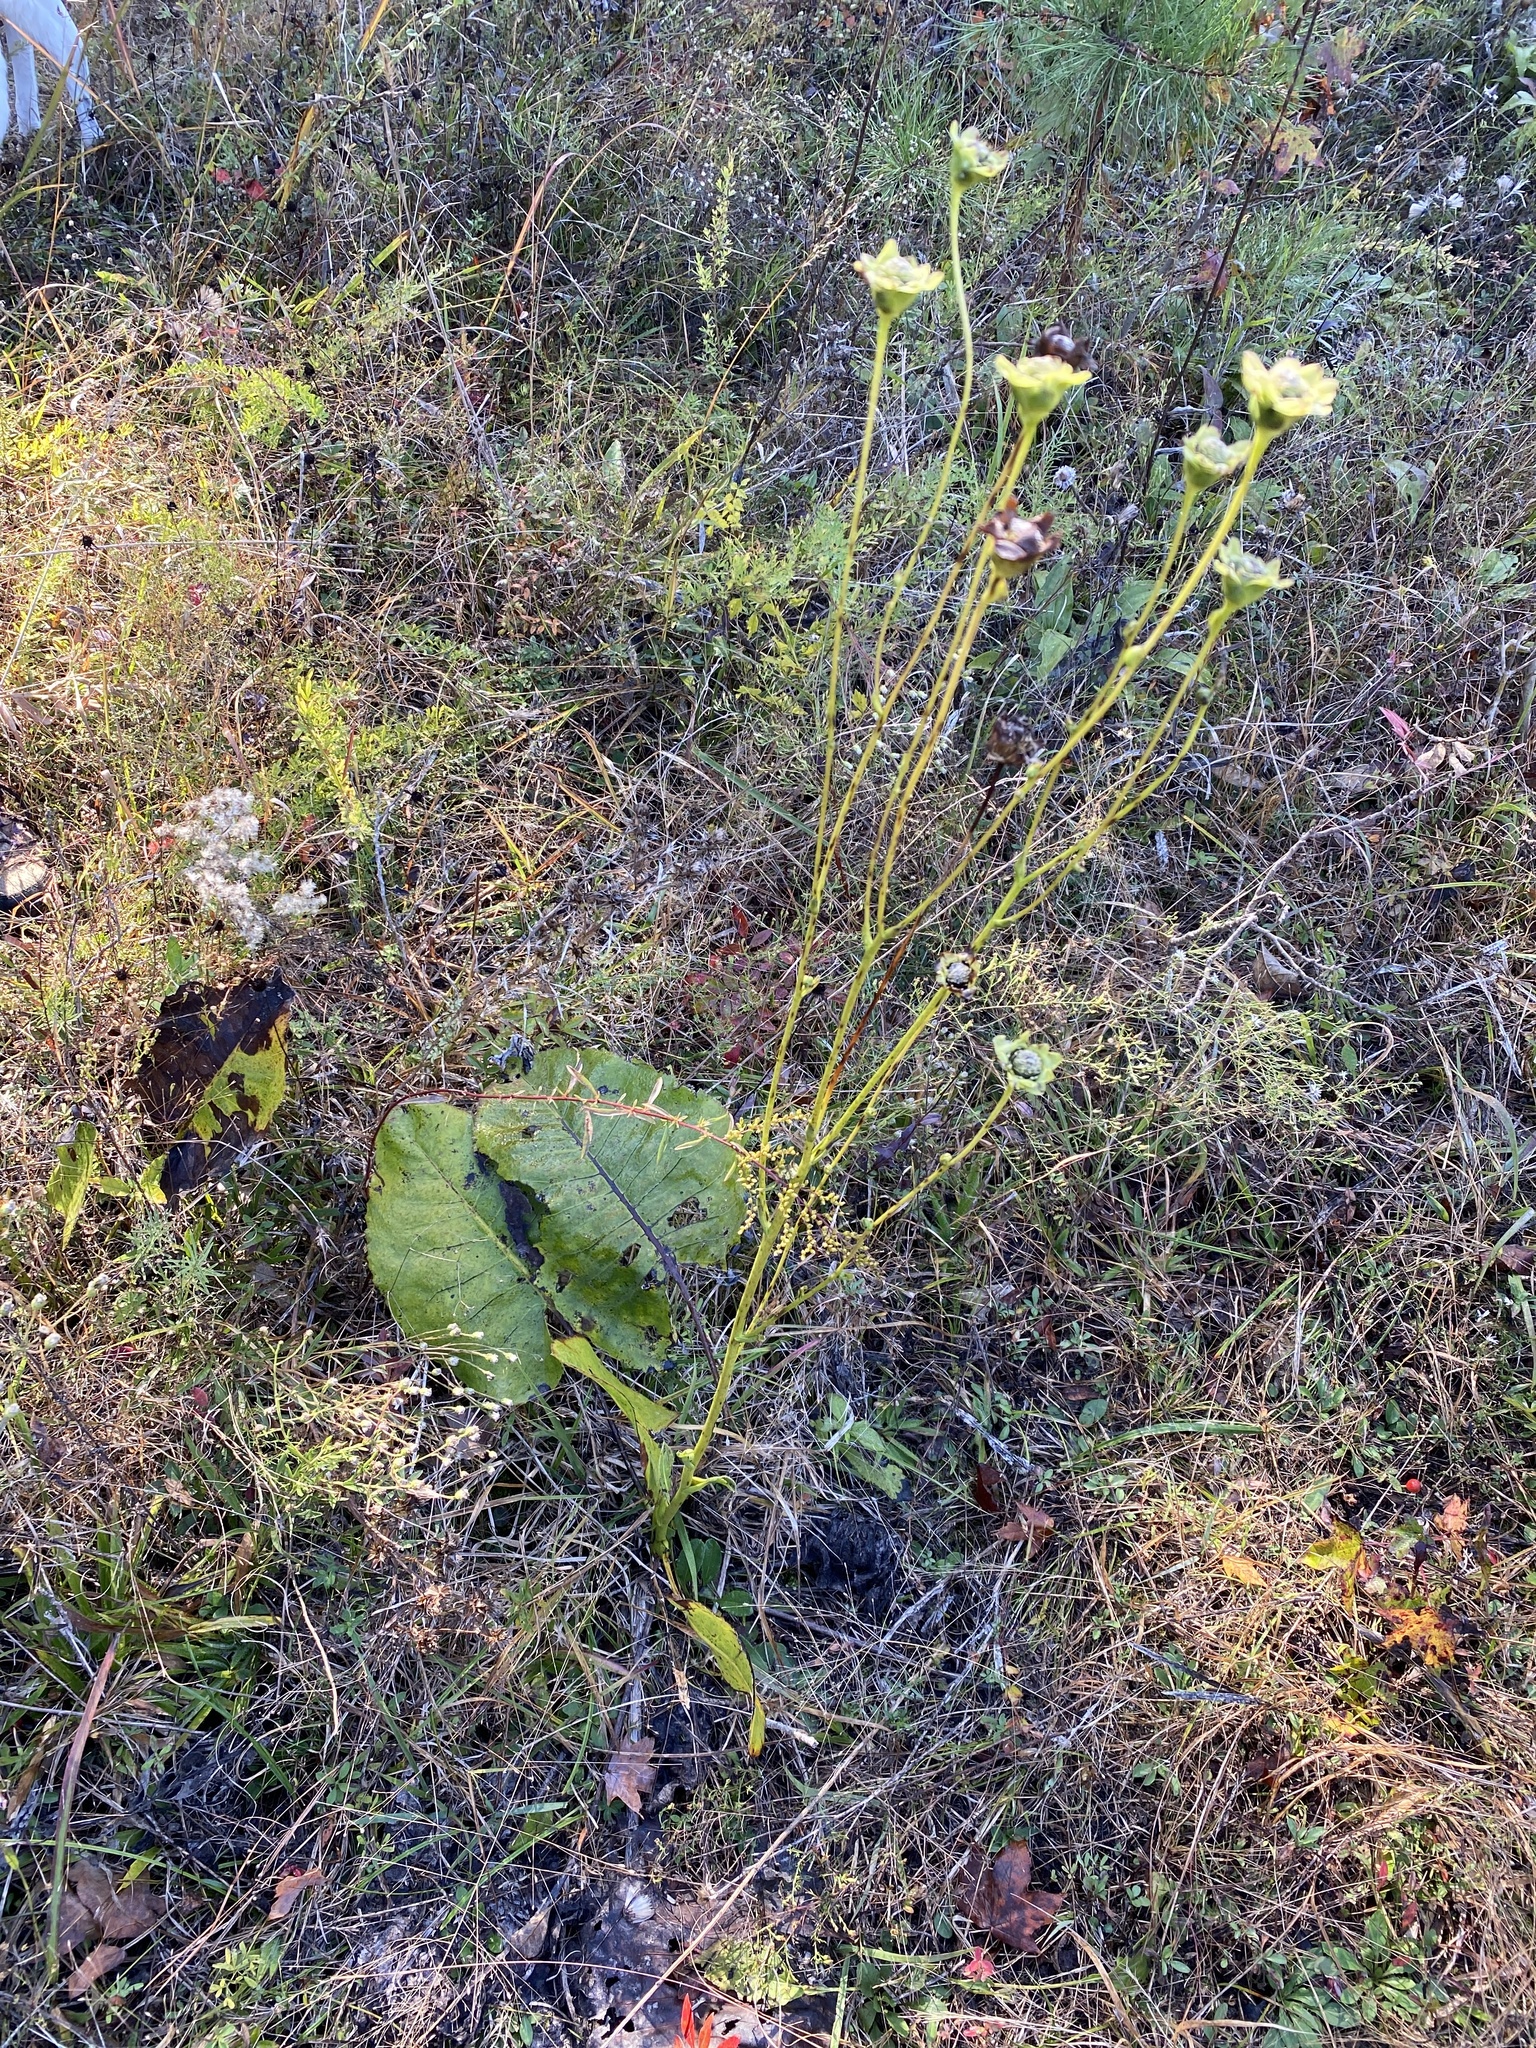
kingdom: Plantae
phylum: Tracheophyta
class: Magnoliopsida
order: Asterales
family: Asteraceae
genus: Silphium
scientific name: Silphium terebinthinaceum
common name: Basal-leaf rosinweed
